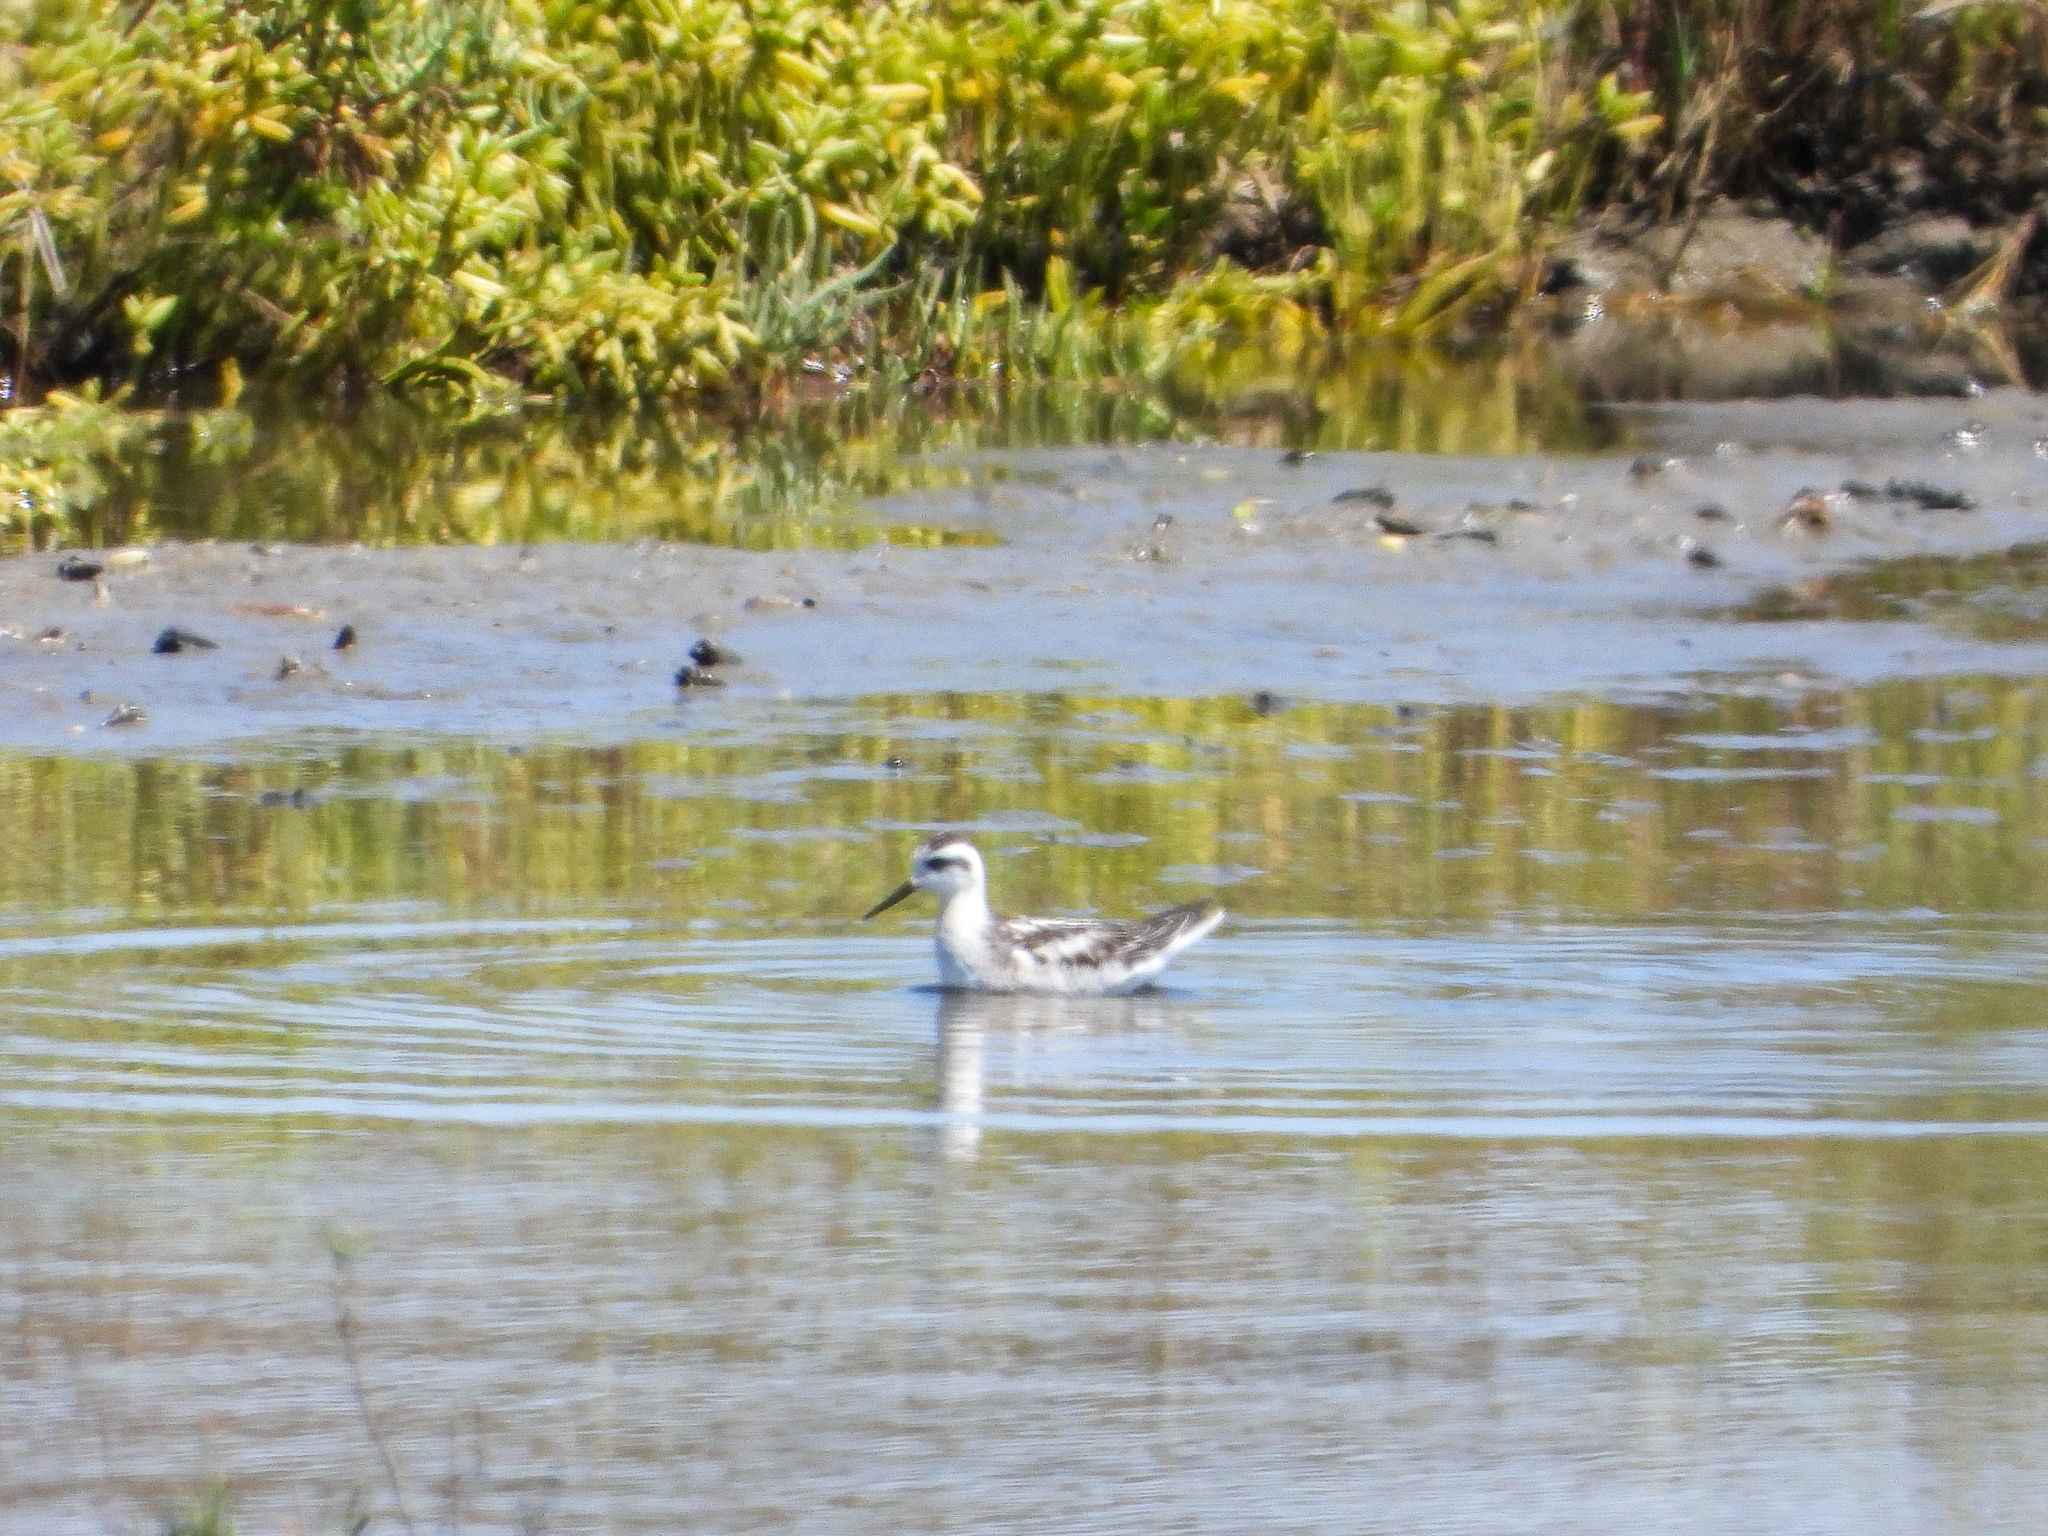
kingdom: Animalia
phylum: Chordata
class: Aves
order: Charadriiformes
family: Scolopacidae
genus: Phalaropus
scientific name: Phalaropus lobatus
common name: Red-necked phalarope
